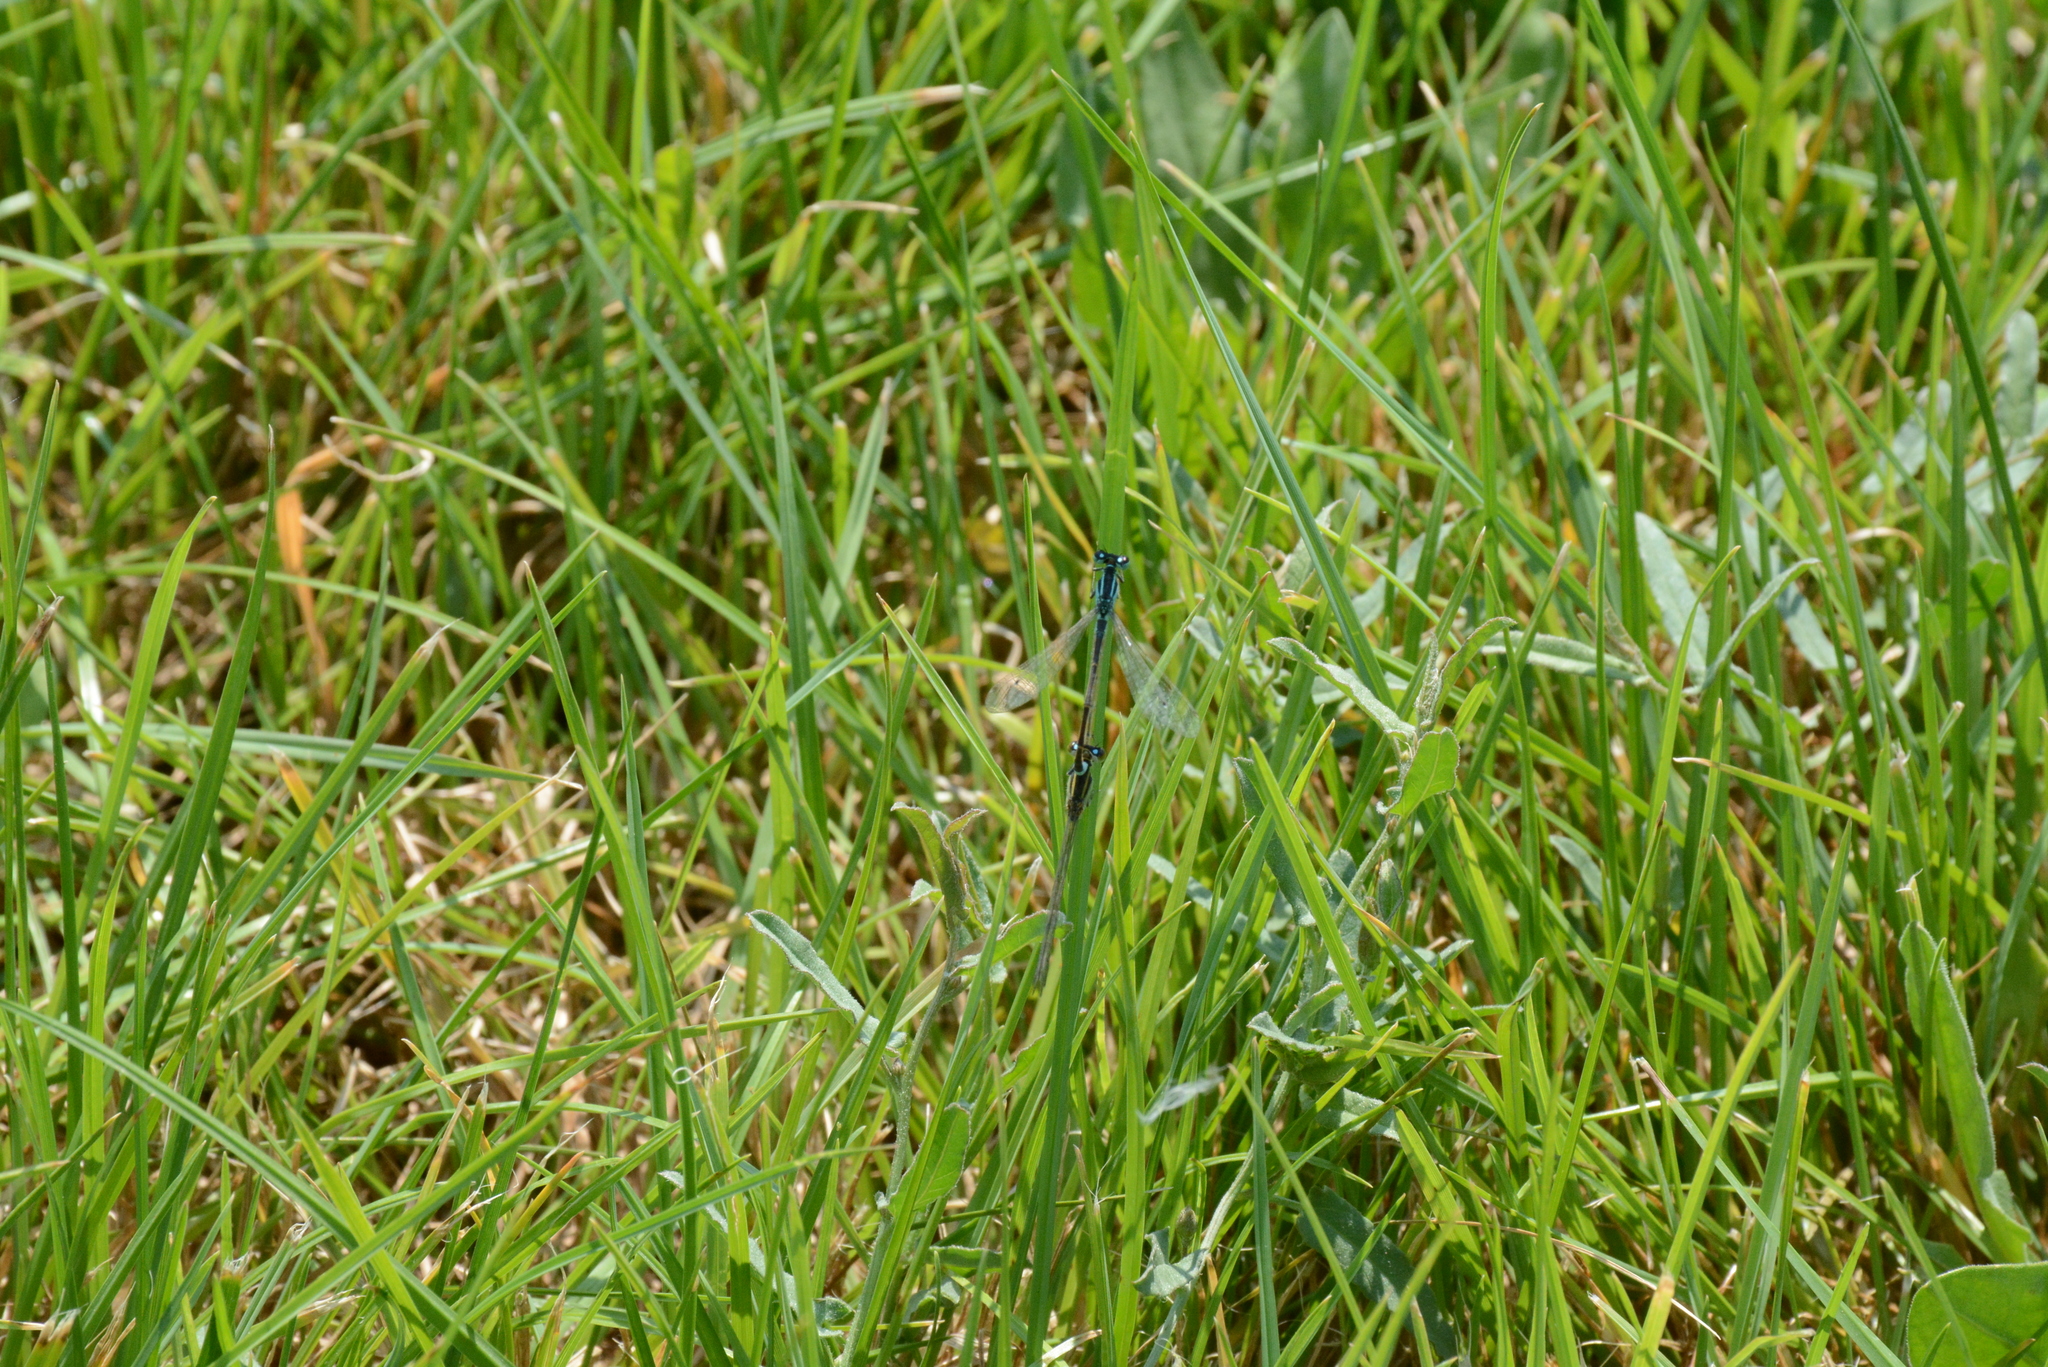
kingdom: Animalia
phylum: Arthropoda
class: Insecta
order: Odonata
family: Coenagrionidae
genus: Ischnura
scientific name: Ischnura elegans
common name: Blue-tailed damselfly
